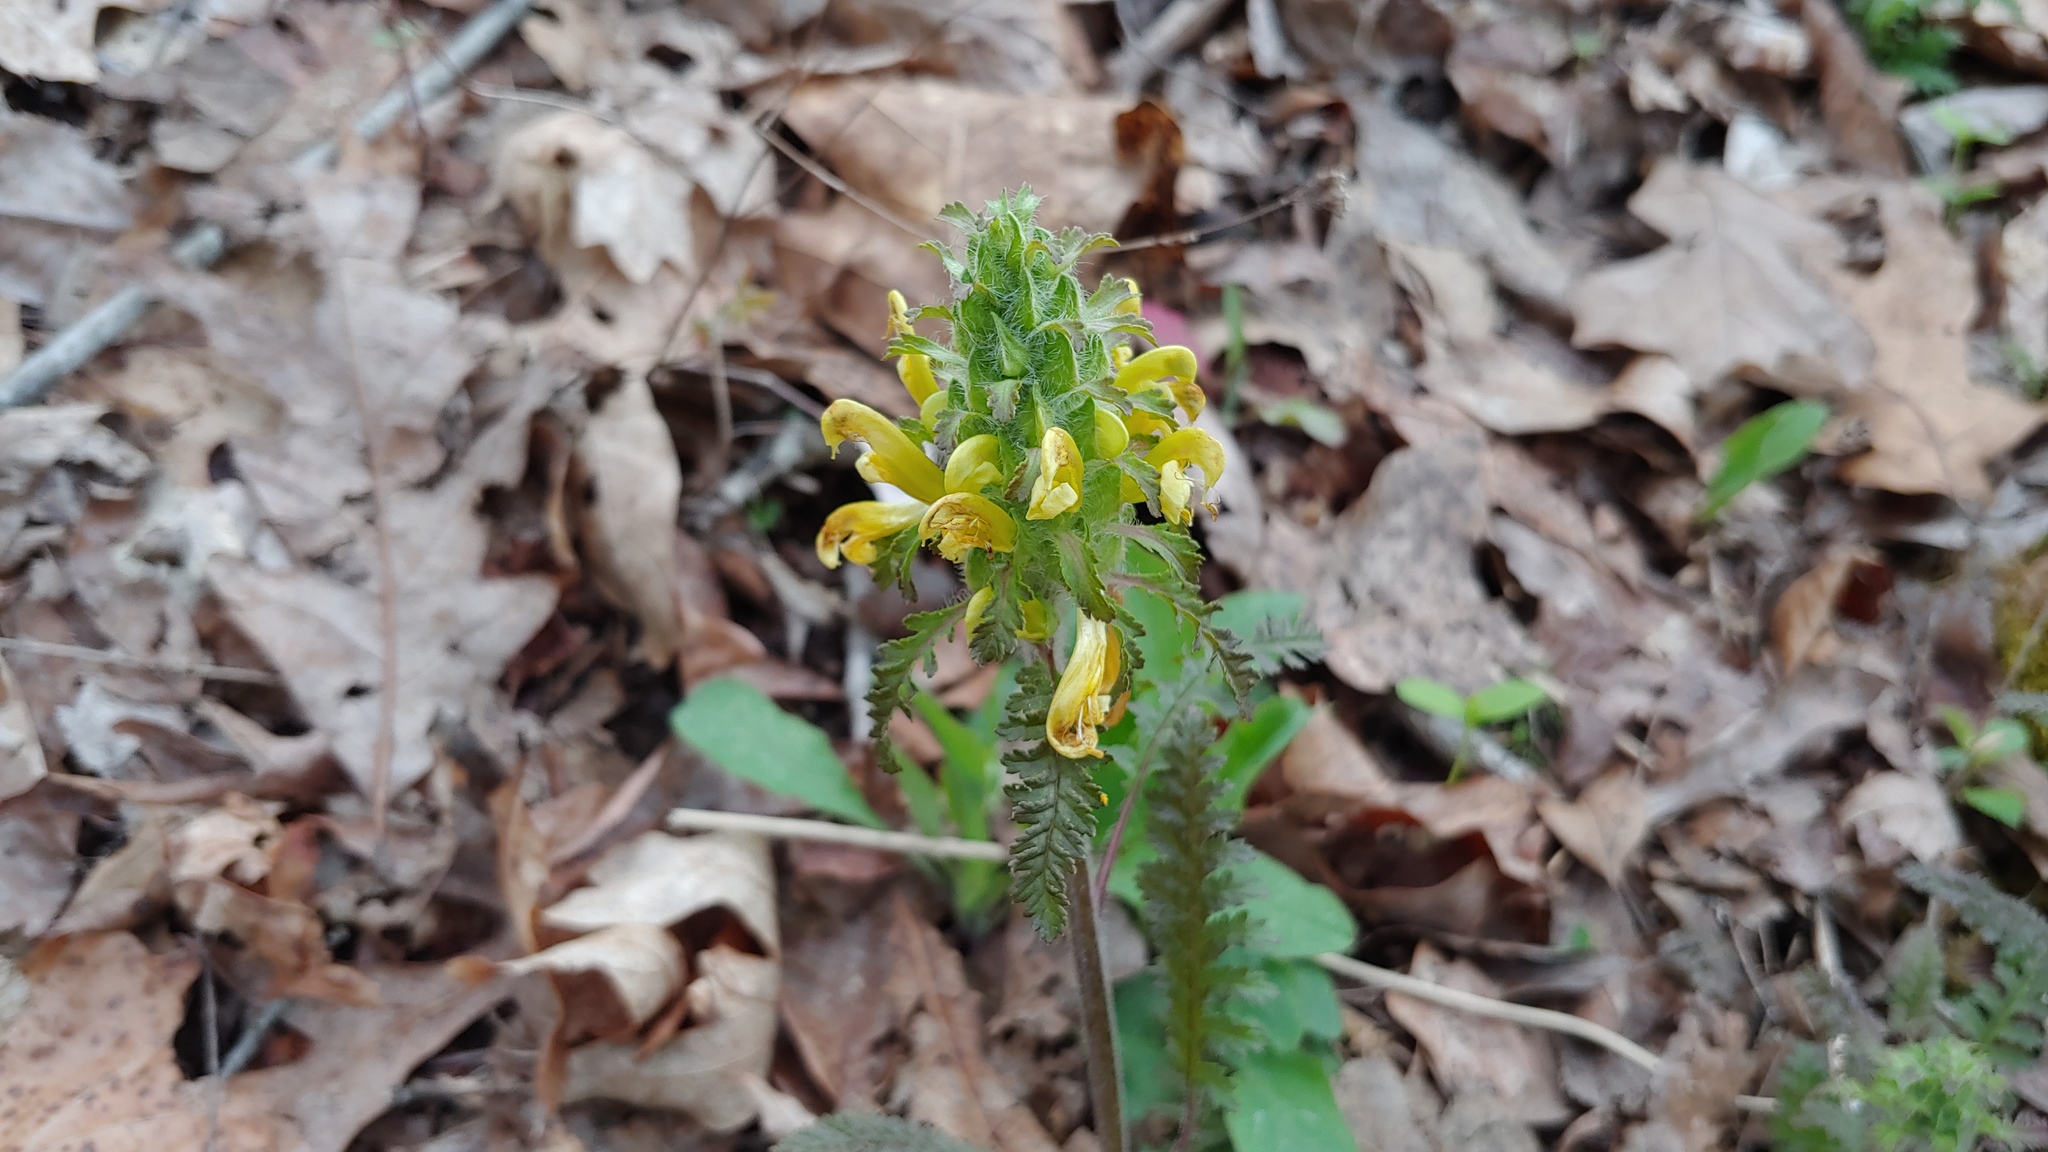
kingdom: Plantae
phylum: Tracheophyta
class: Magnoliopsida
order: Lamiales
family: Orobanchaceae
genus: Pedicularis
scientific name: Pedicularis canadensis
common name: Early lousewort
